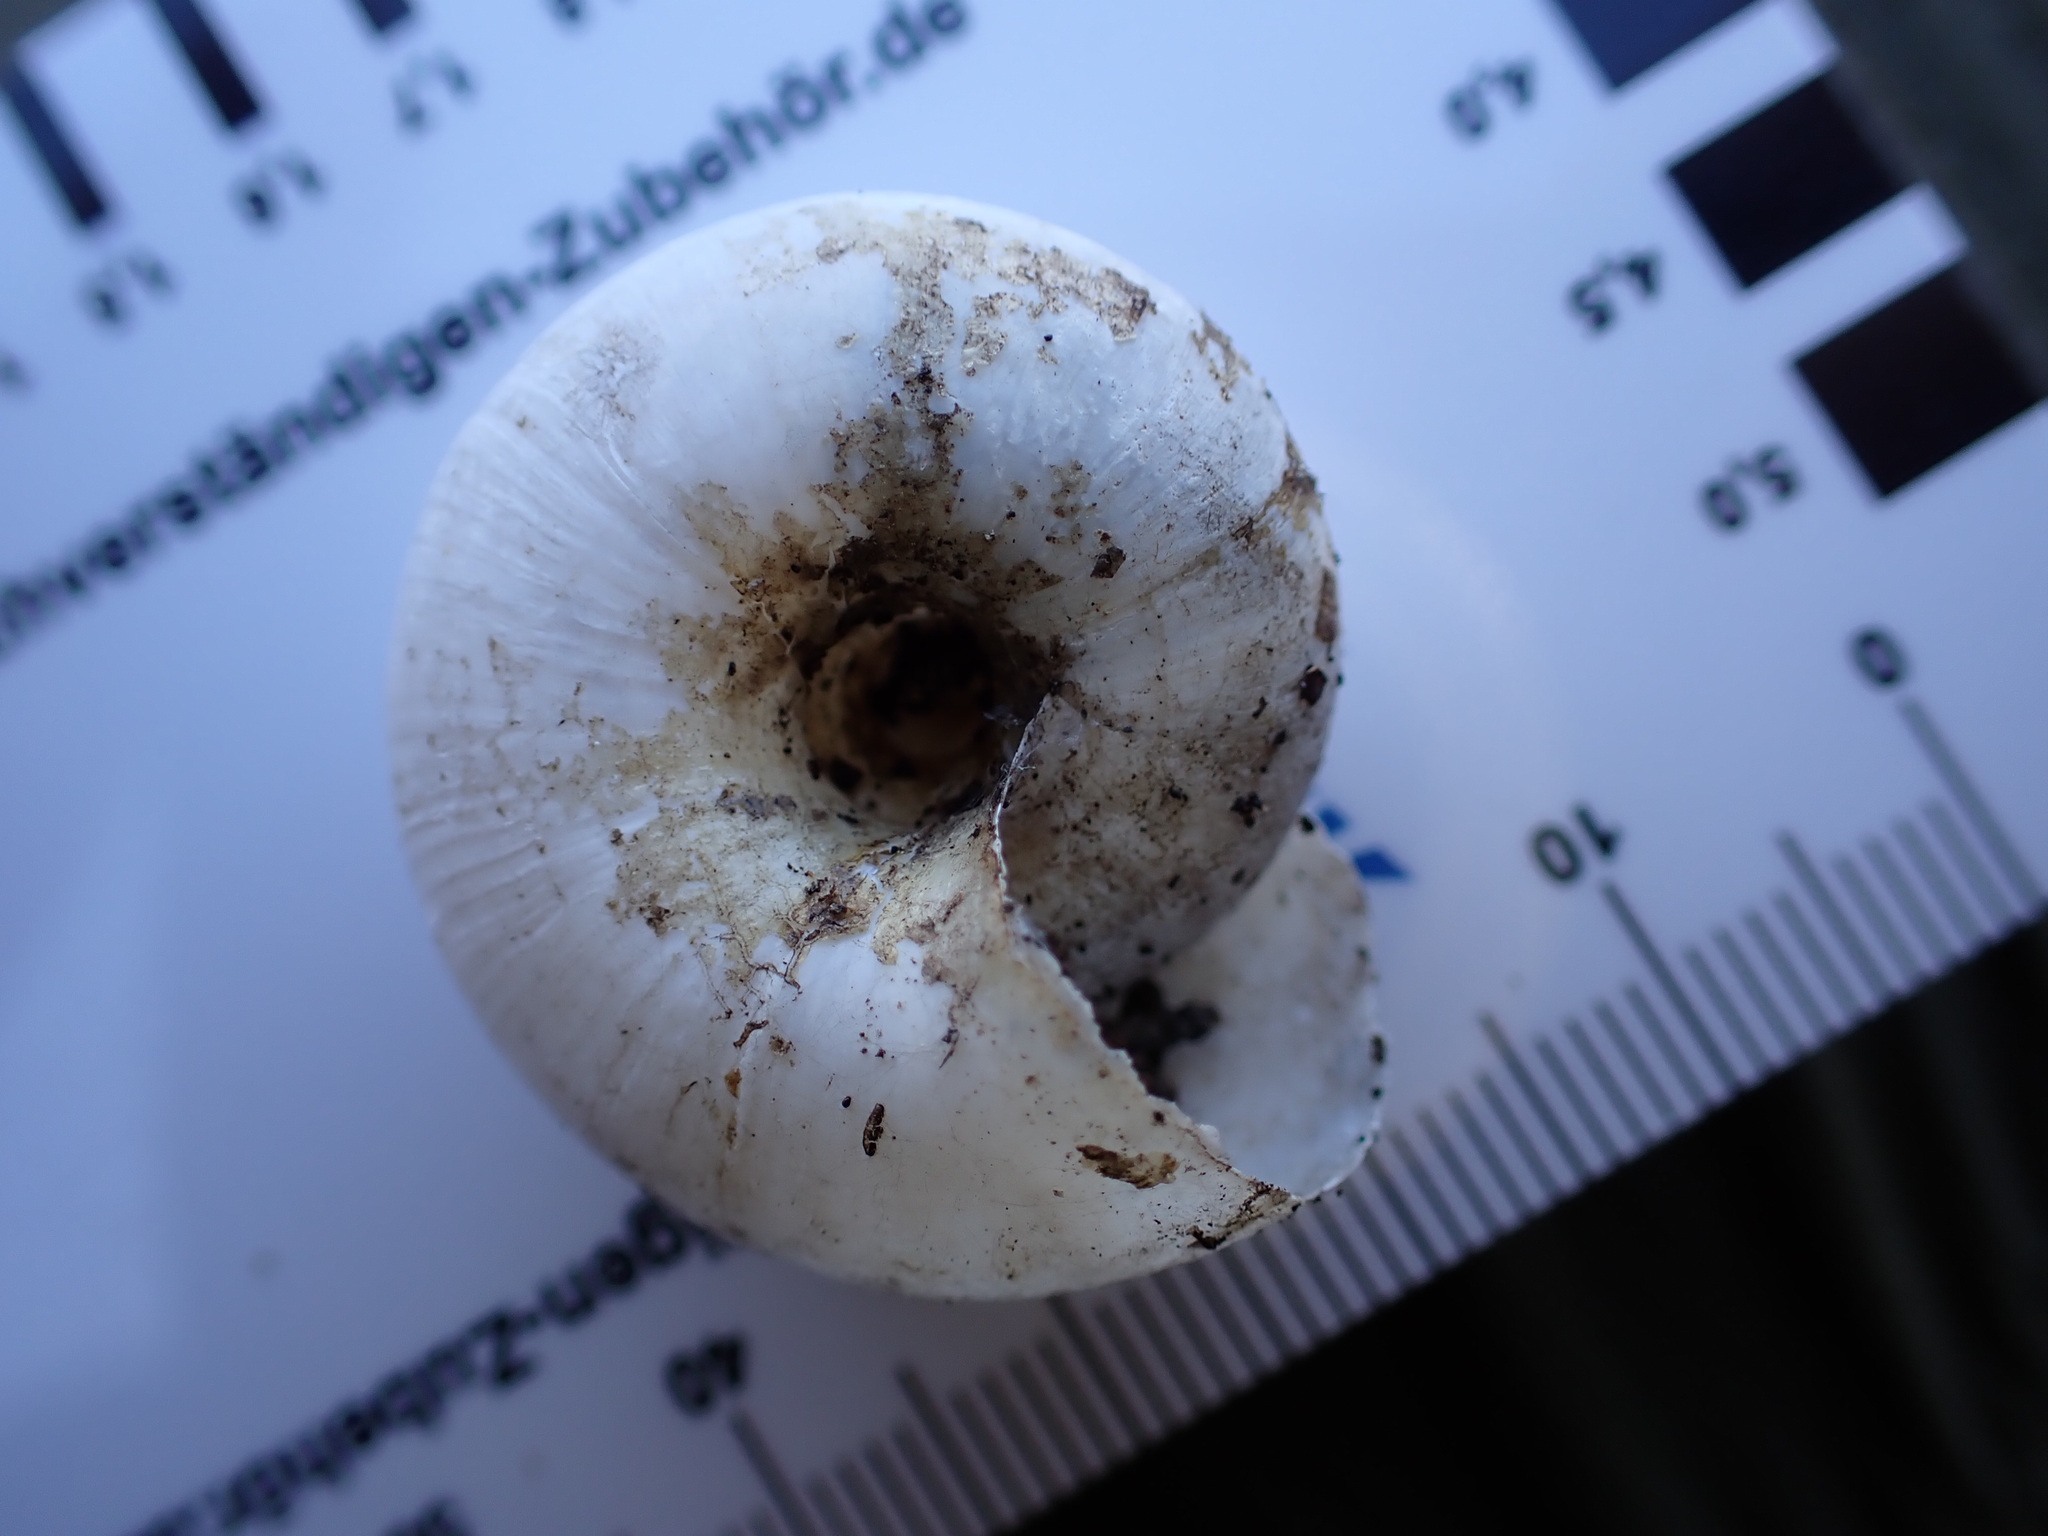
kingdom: Animalia
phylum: Mollusca
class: Gastropoda
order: Stylommatophora
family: Zonitidae
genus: Zonites
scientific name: Zonites algirus
